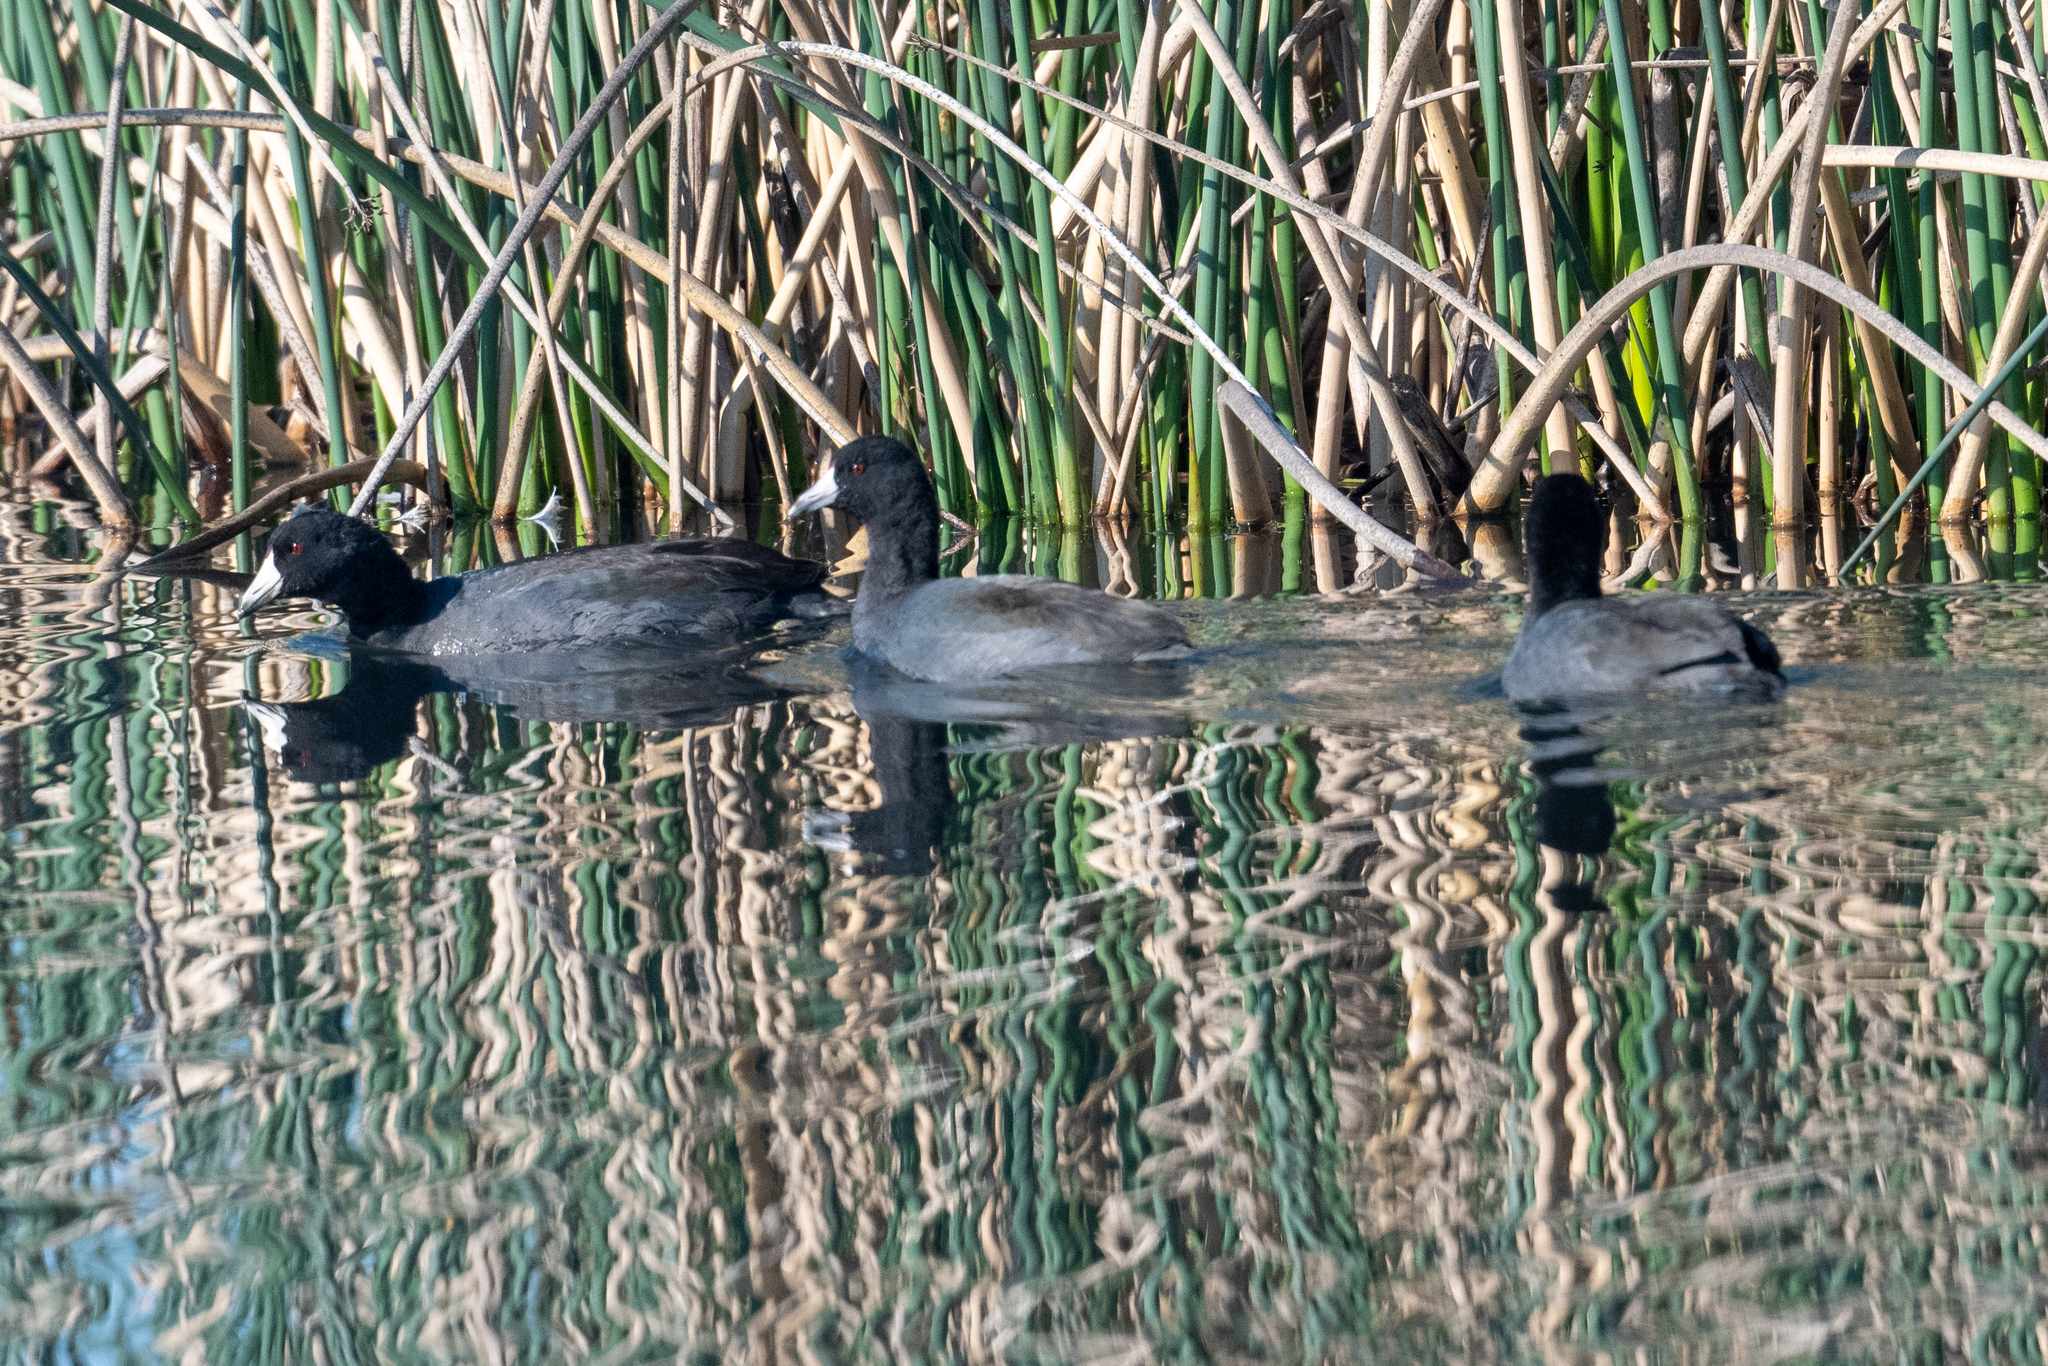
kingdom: Animalia
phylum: Chordata
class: Aves
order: Gruiformes
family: Rallidae
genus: Fulica
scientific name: Fulica americana
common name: American coot
